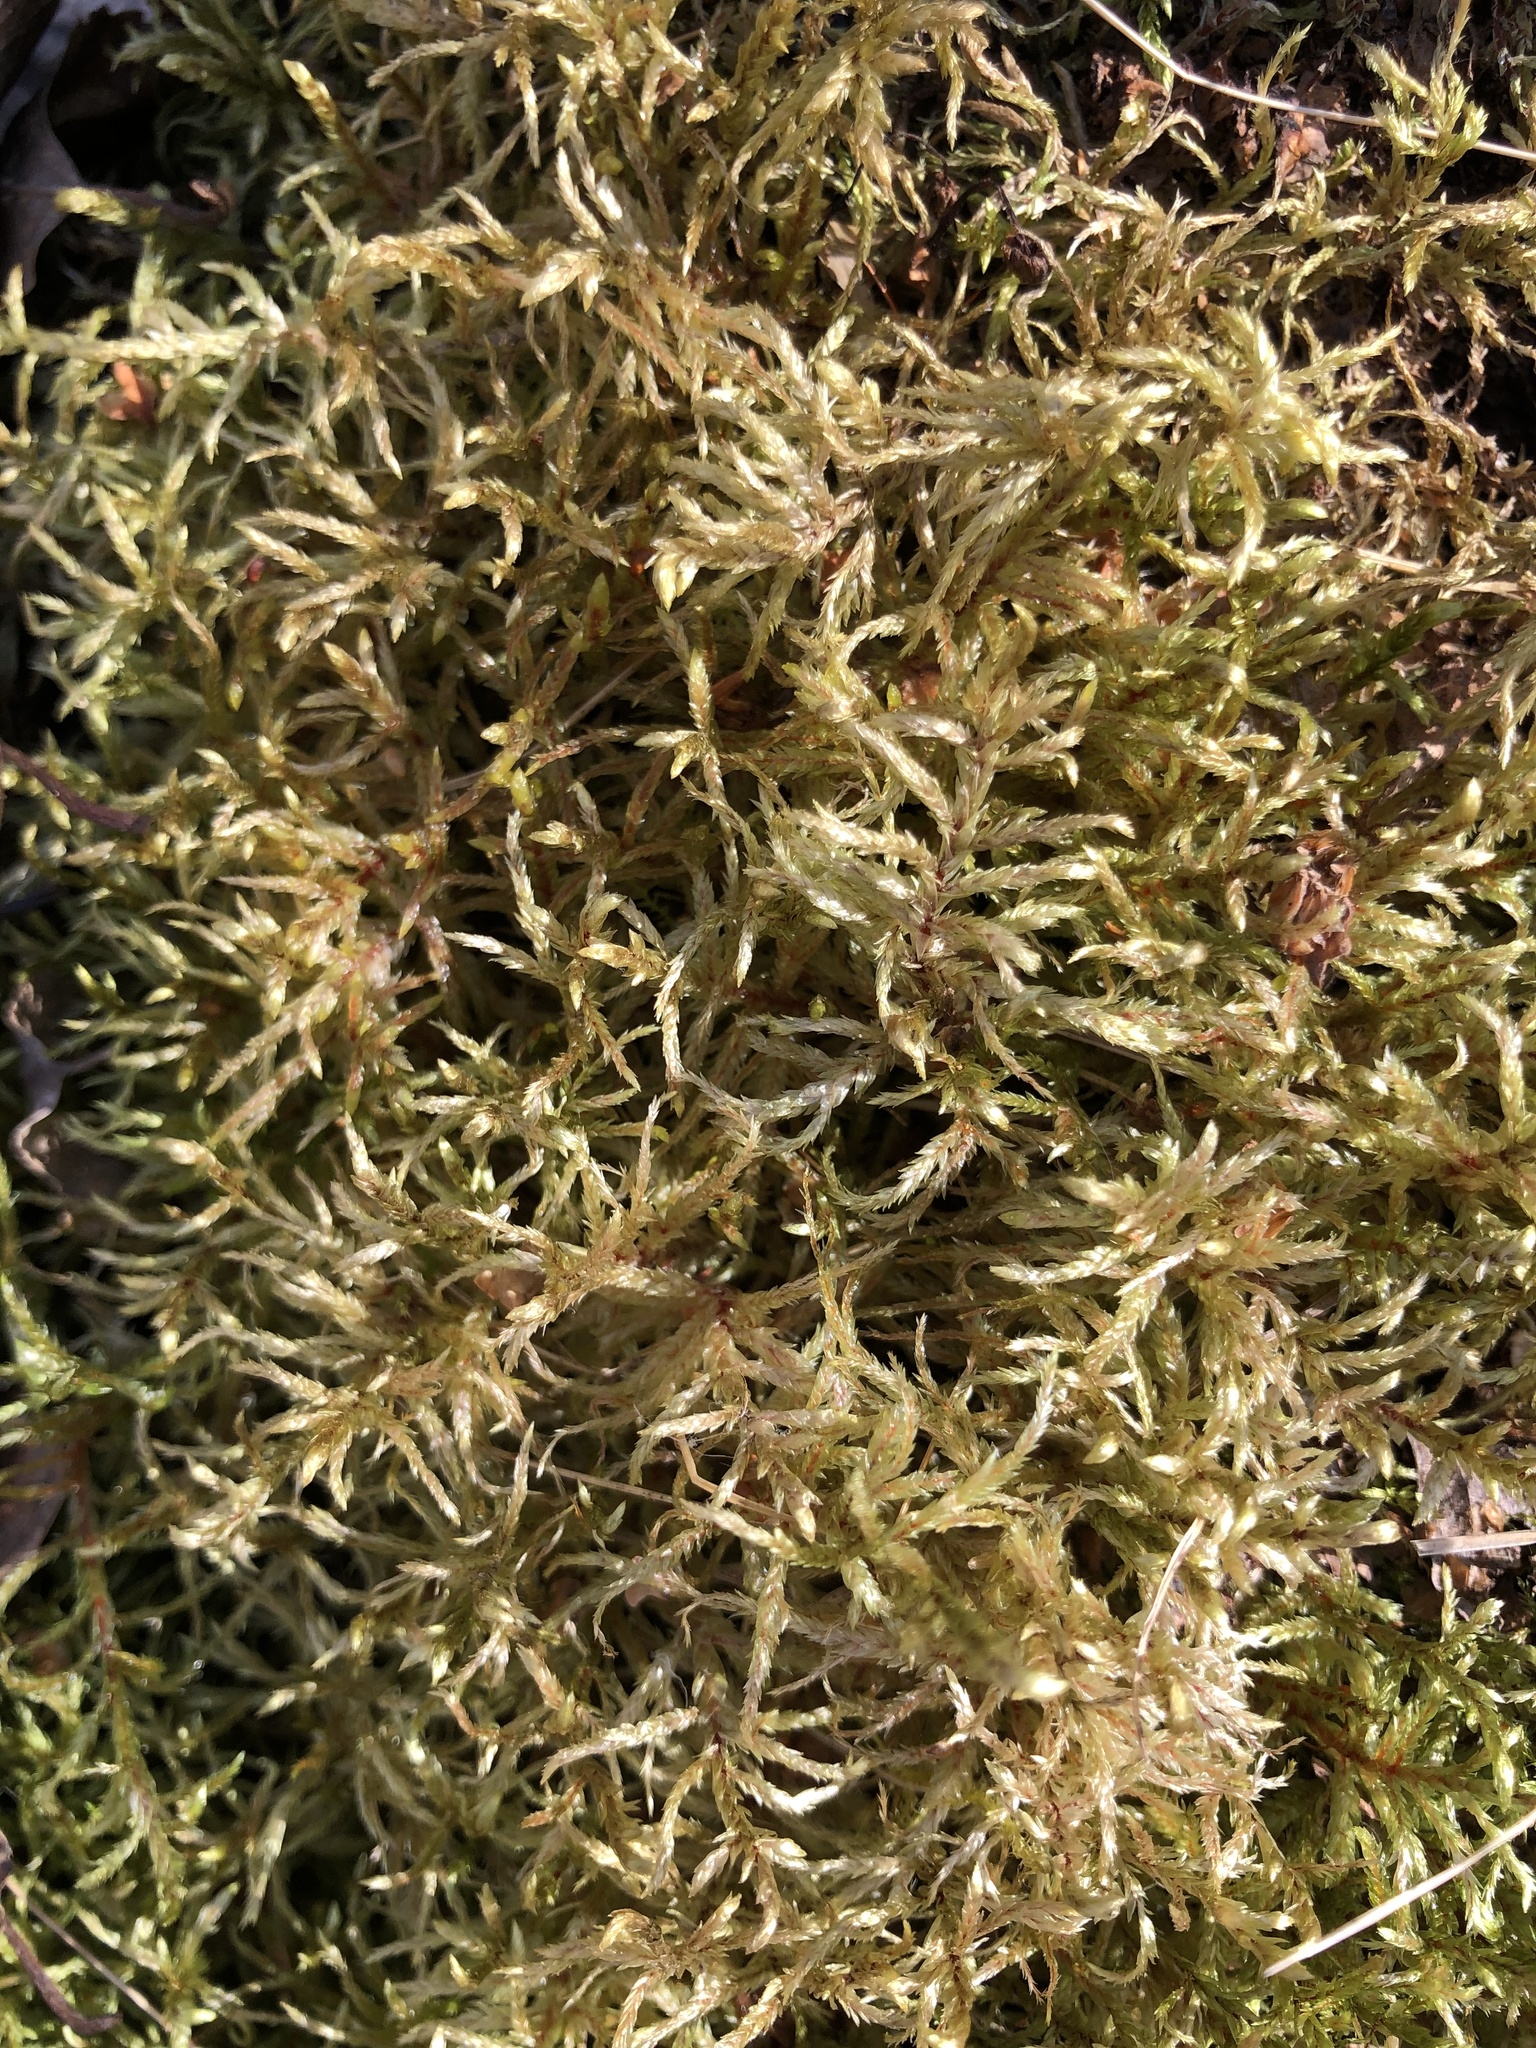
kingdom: Plantae
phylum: Bryophyta
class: Bryopsida
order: Hypnales
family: Hylocomiaceae
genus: Pleurozium
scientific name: Pleurozium schreberi
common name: Red-stemmed feather moss
